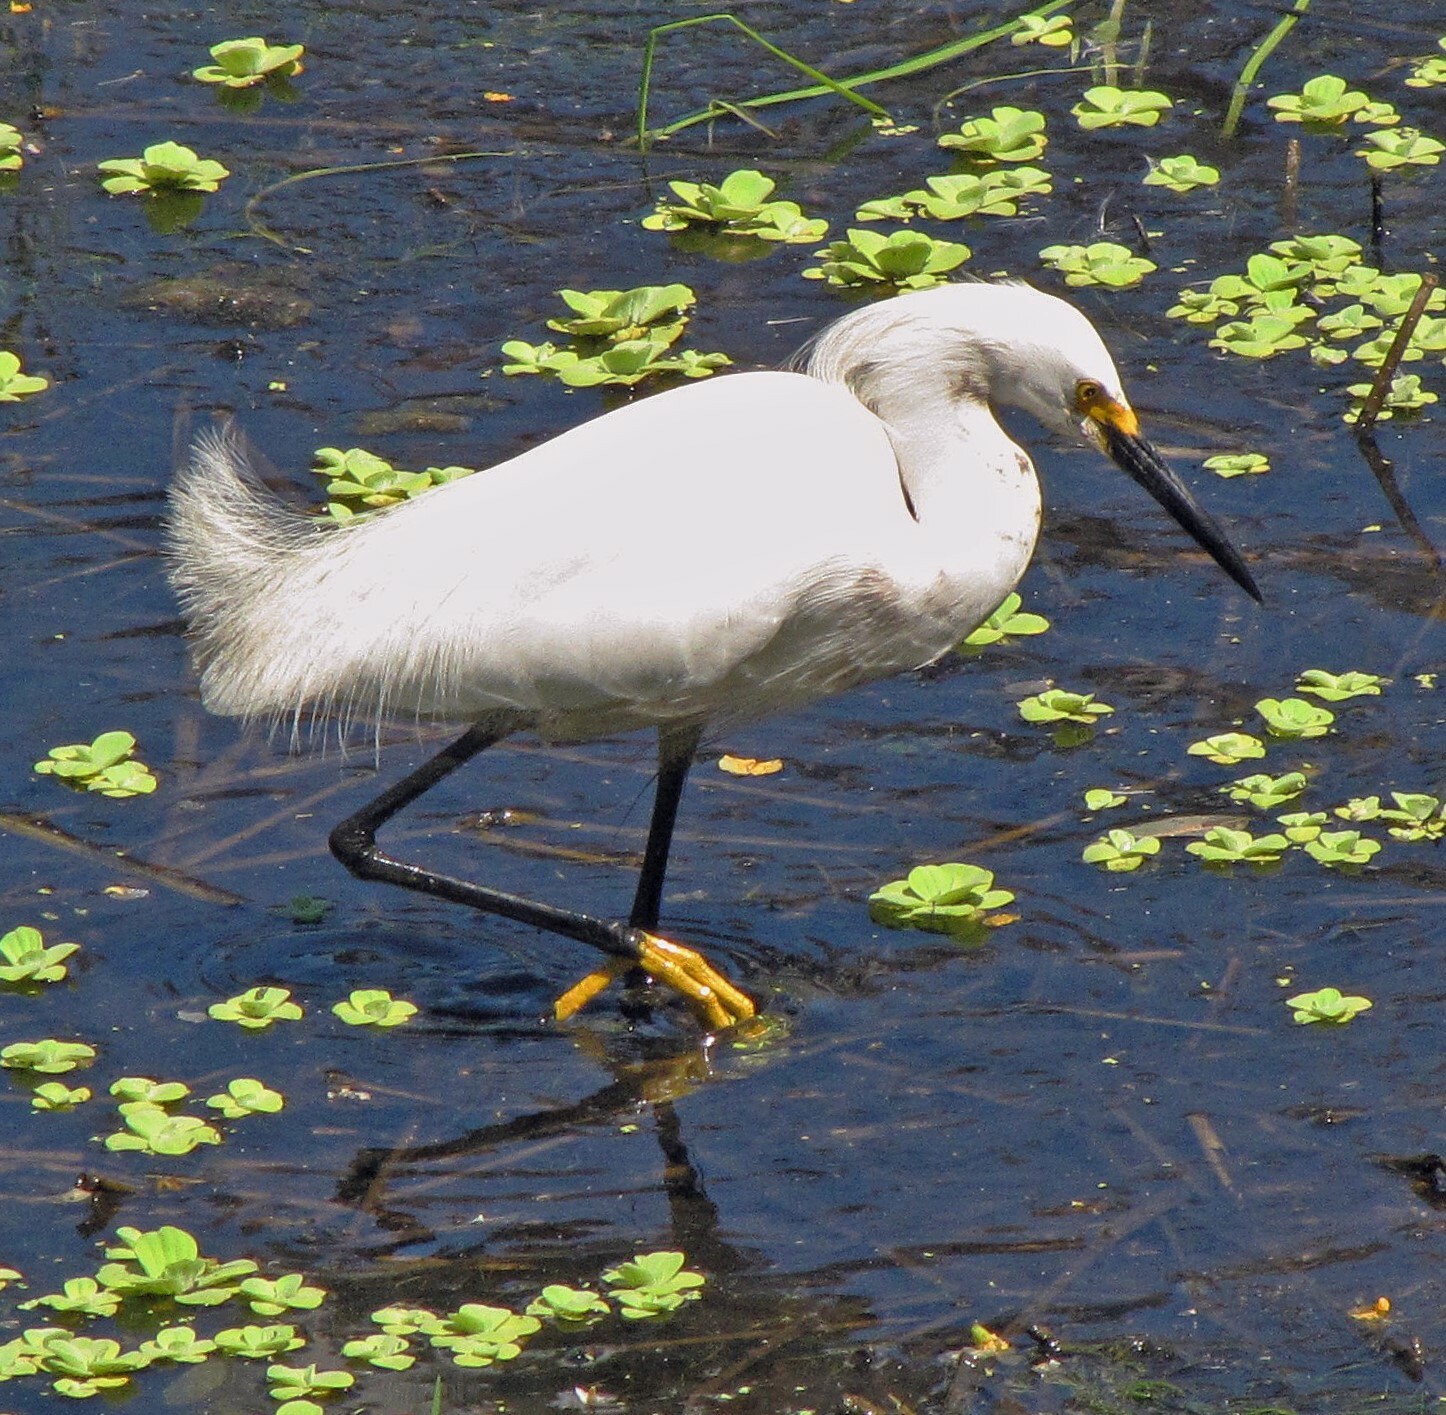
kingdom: Animalia
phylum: Chordata
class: Aves
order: Pelecaniformes
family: Ardeidae
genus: Egretta
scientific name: Egretta thula
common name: Snowy egret
